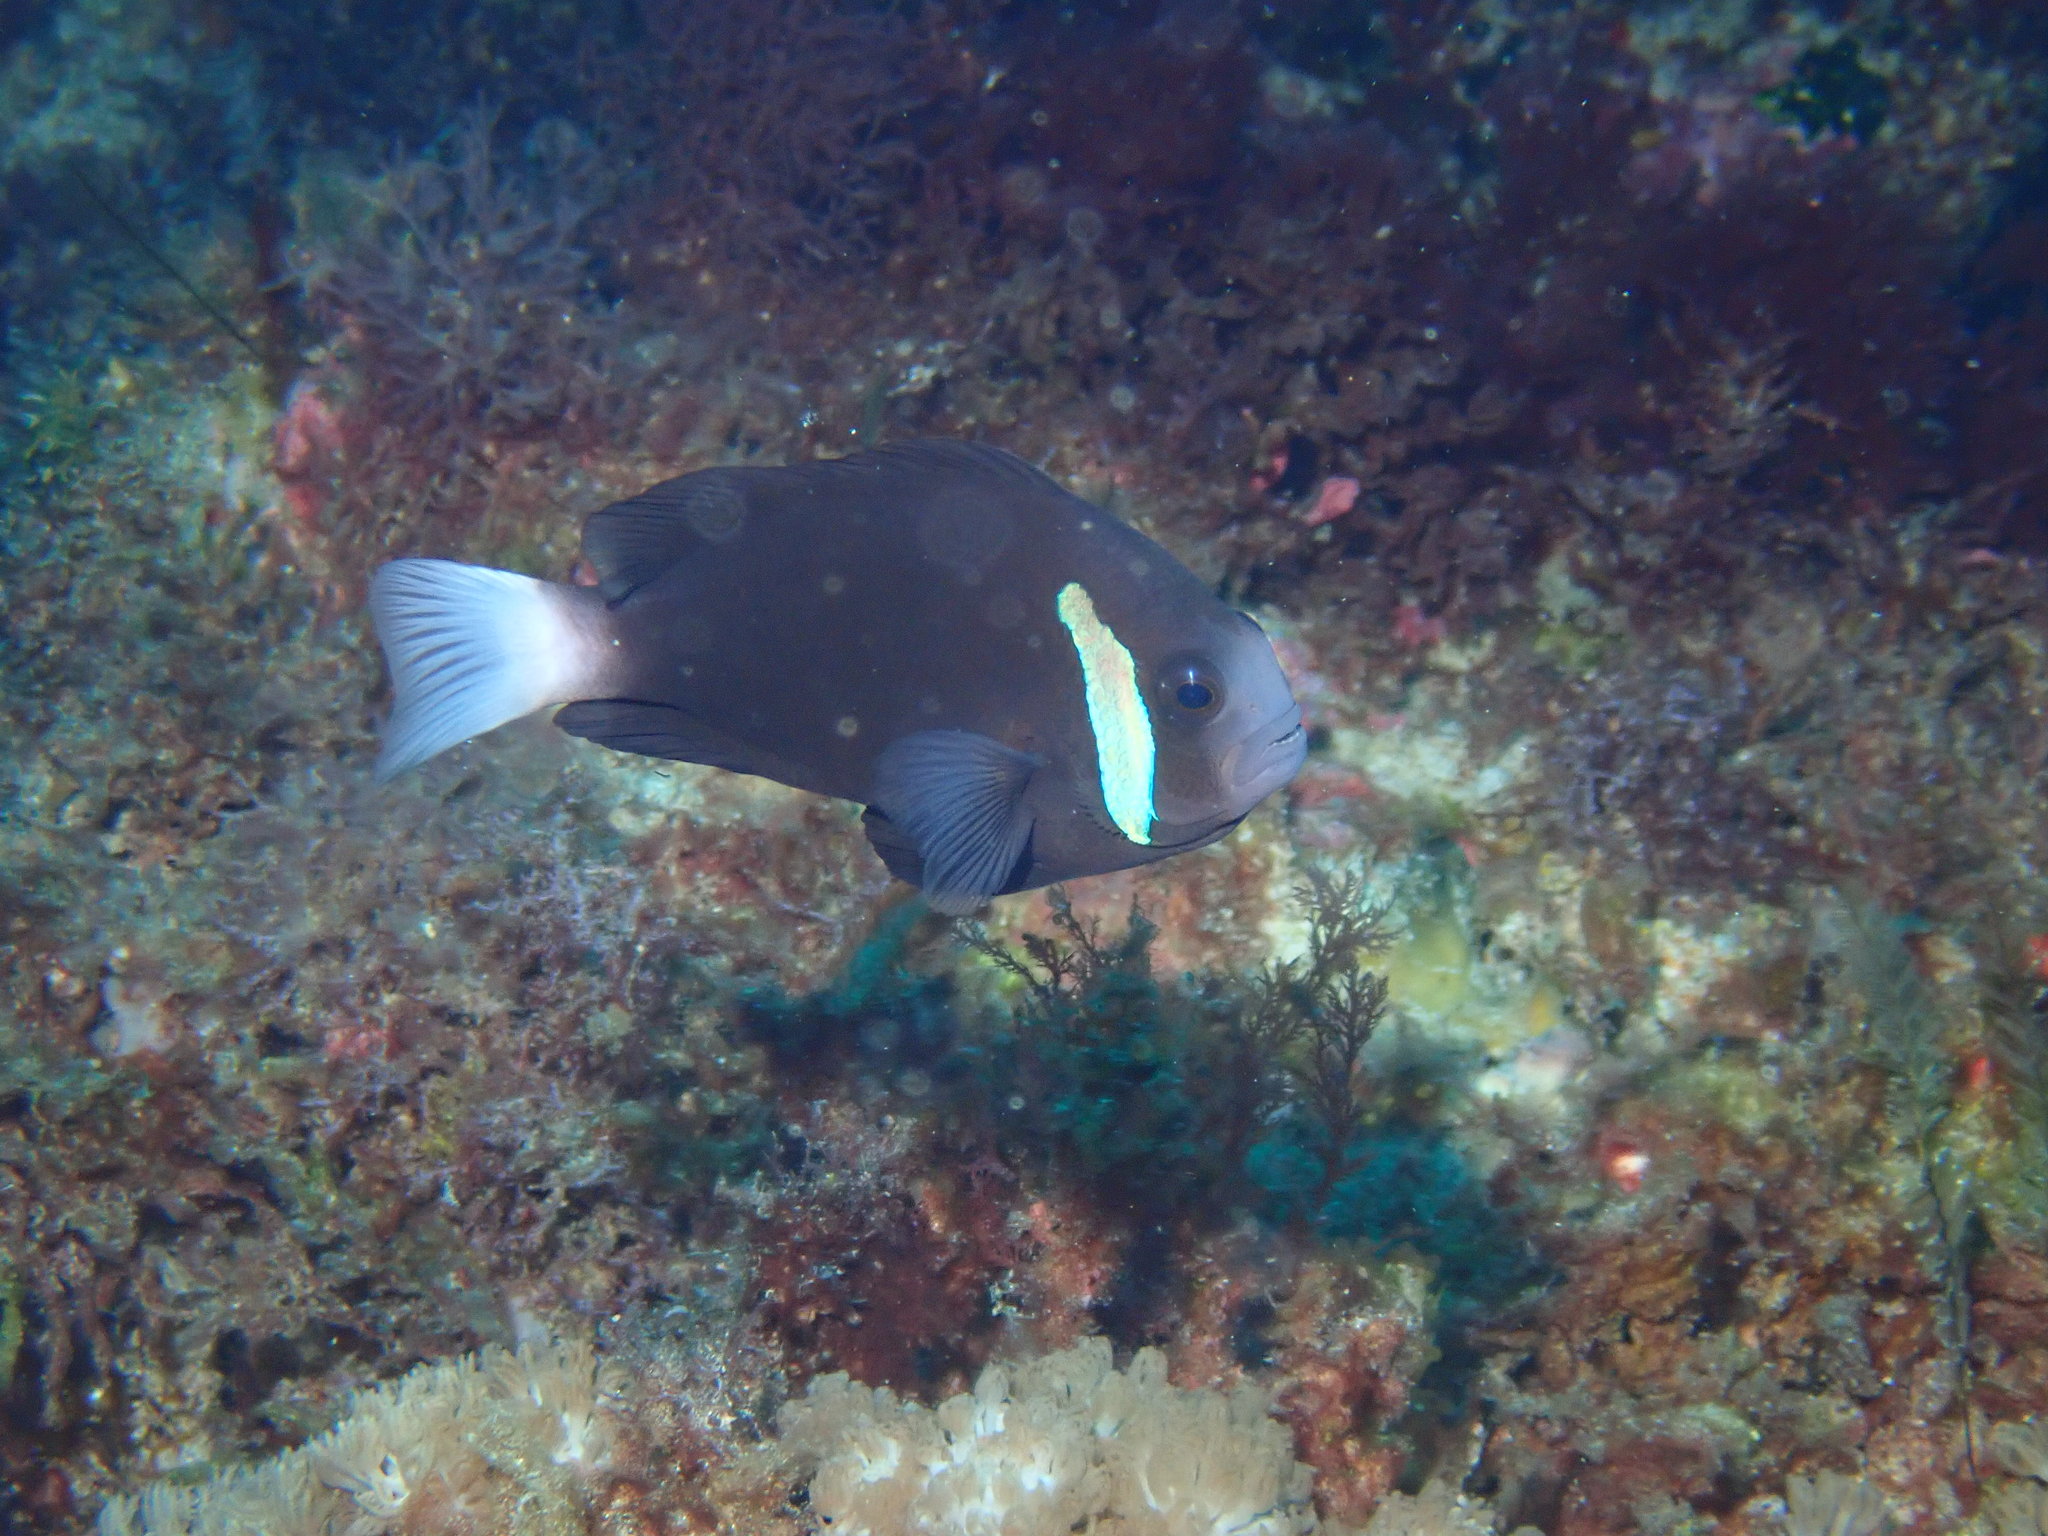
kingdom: Animalia
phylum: Chordata
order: Perciformes
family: Pomacentridae
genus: Amphiprion
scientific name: Amphiprion mccullochi
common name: Mcculloch's anemonefish
